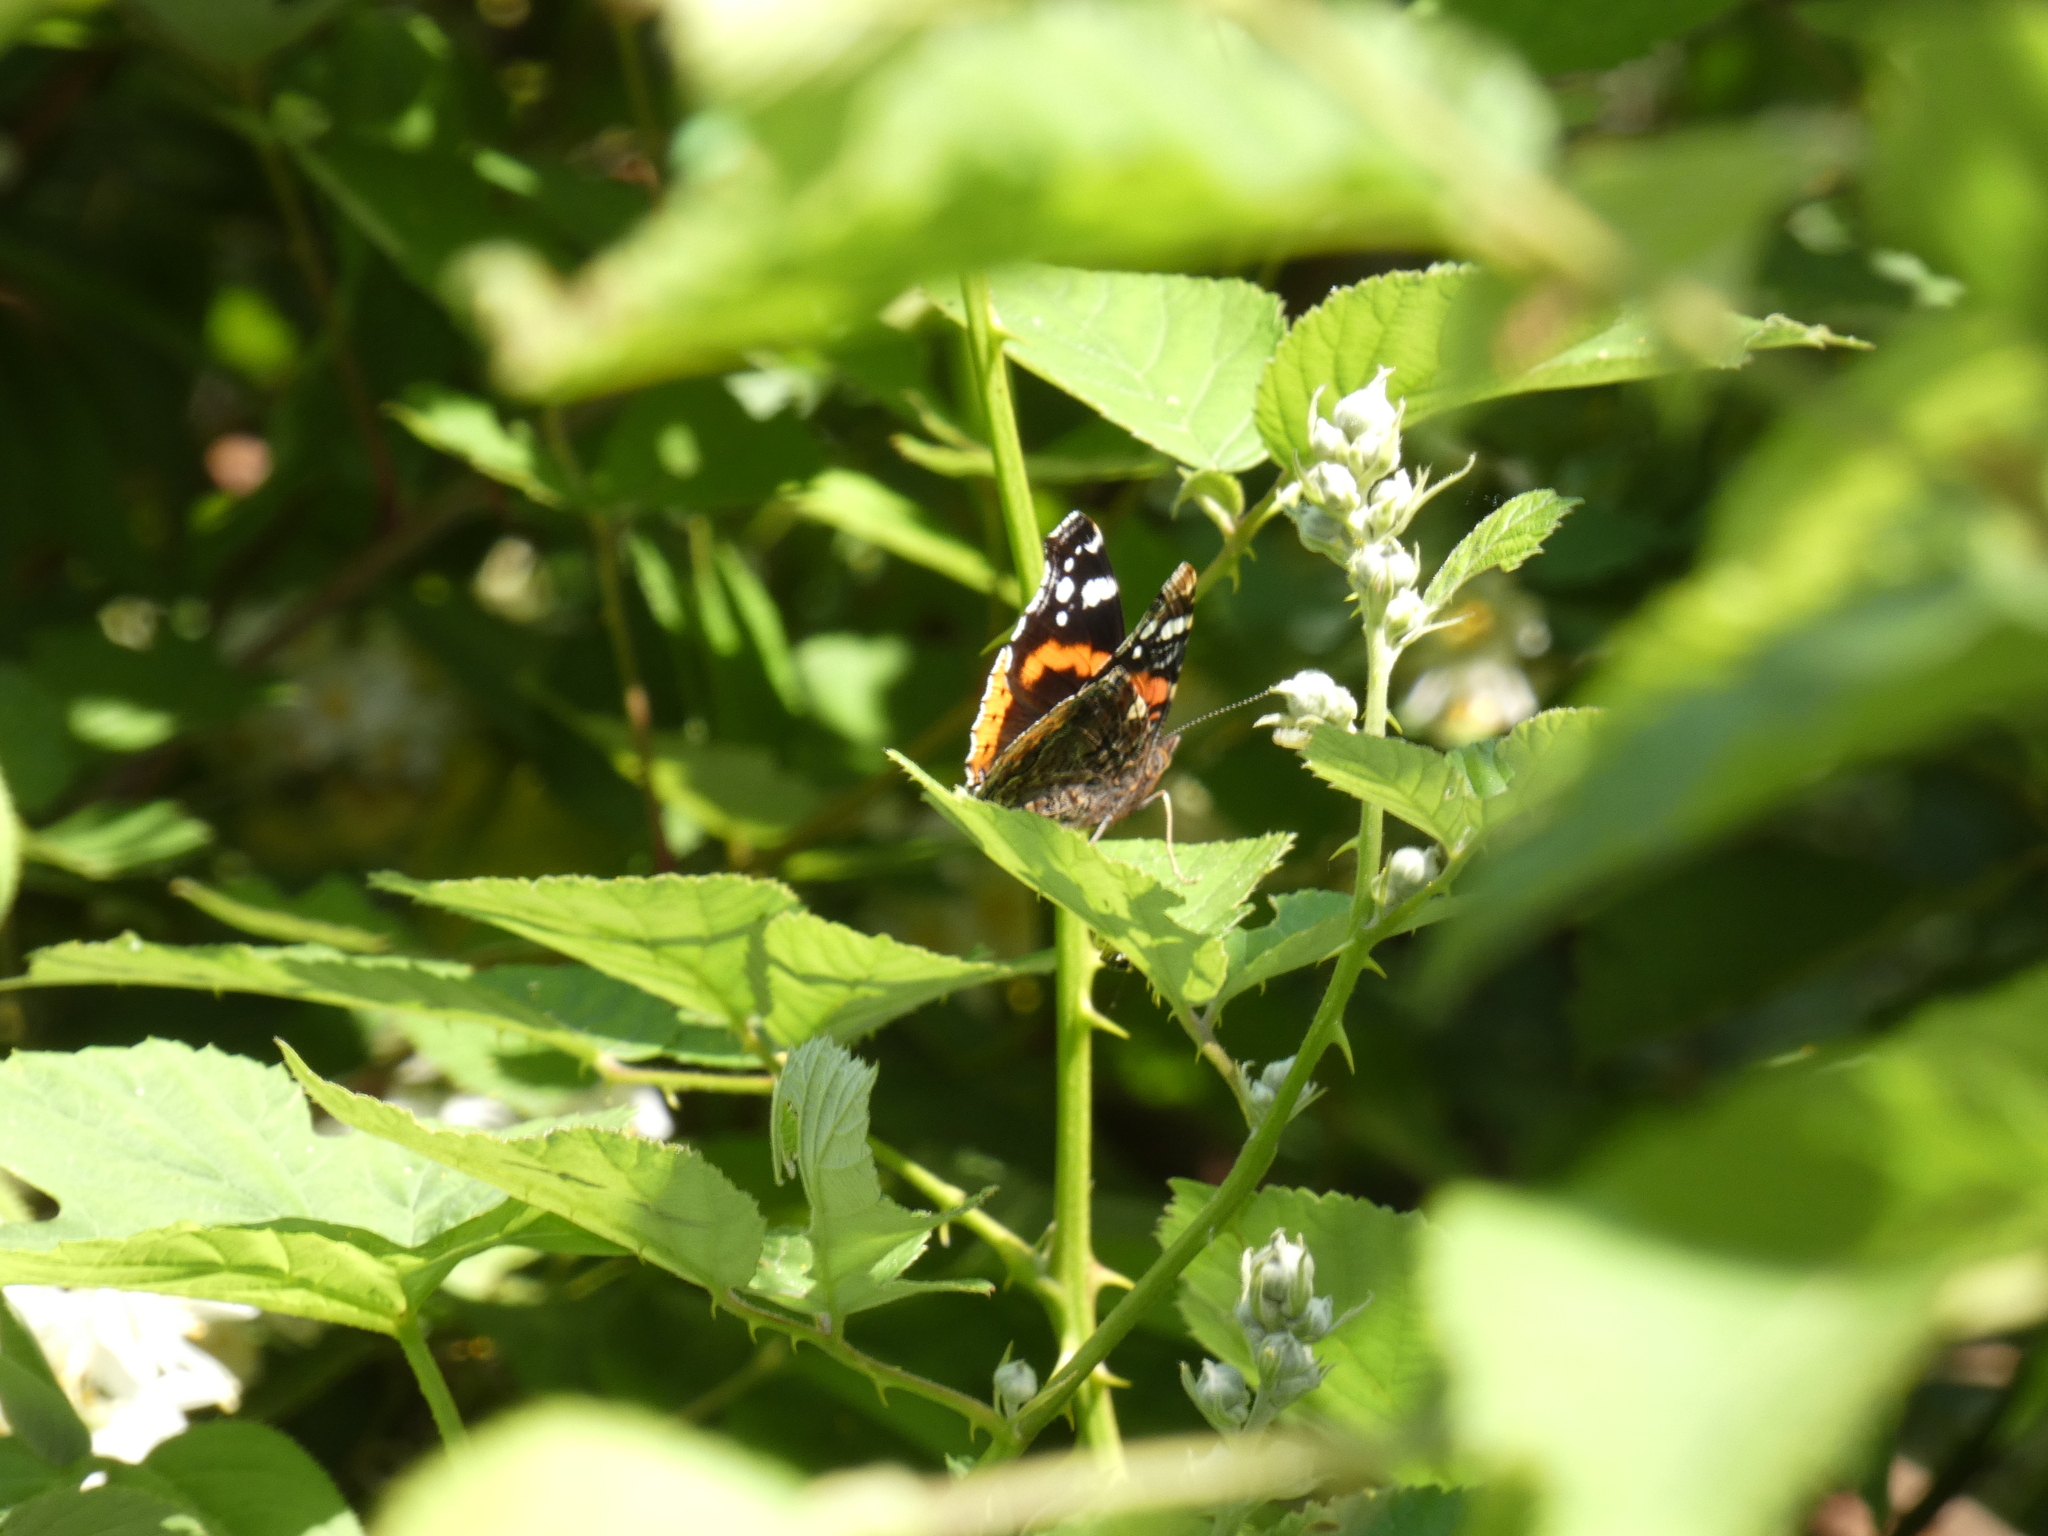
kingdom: Animalia
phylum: Arthropoda
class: Insecta
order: Lepidoptera
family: Nymphalidae
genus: Vanessa
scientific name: Vanessa atalanta
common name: Red admiral
